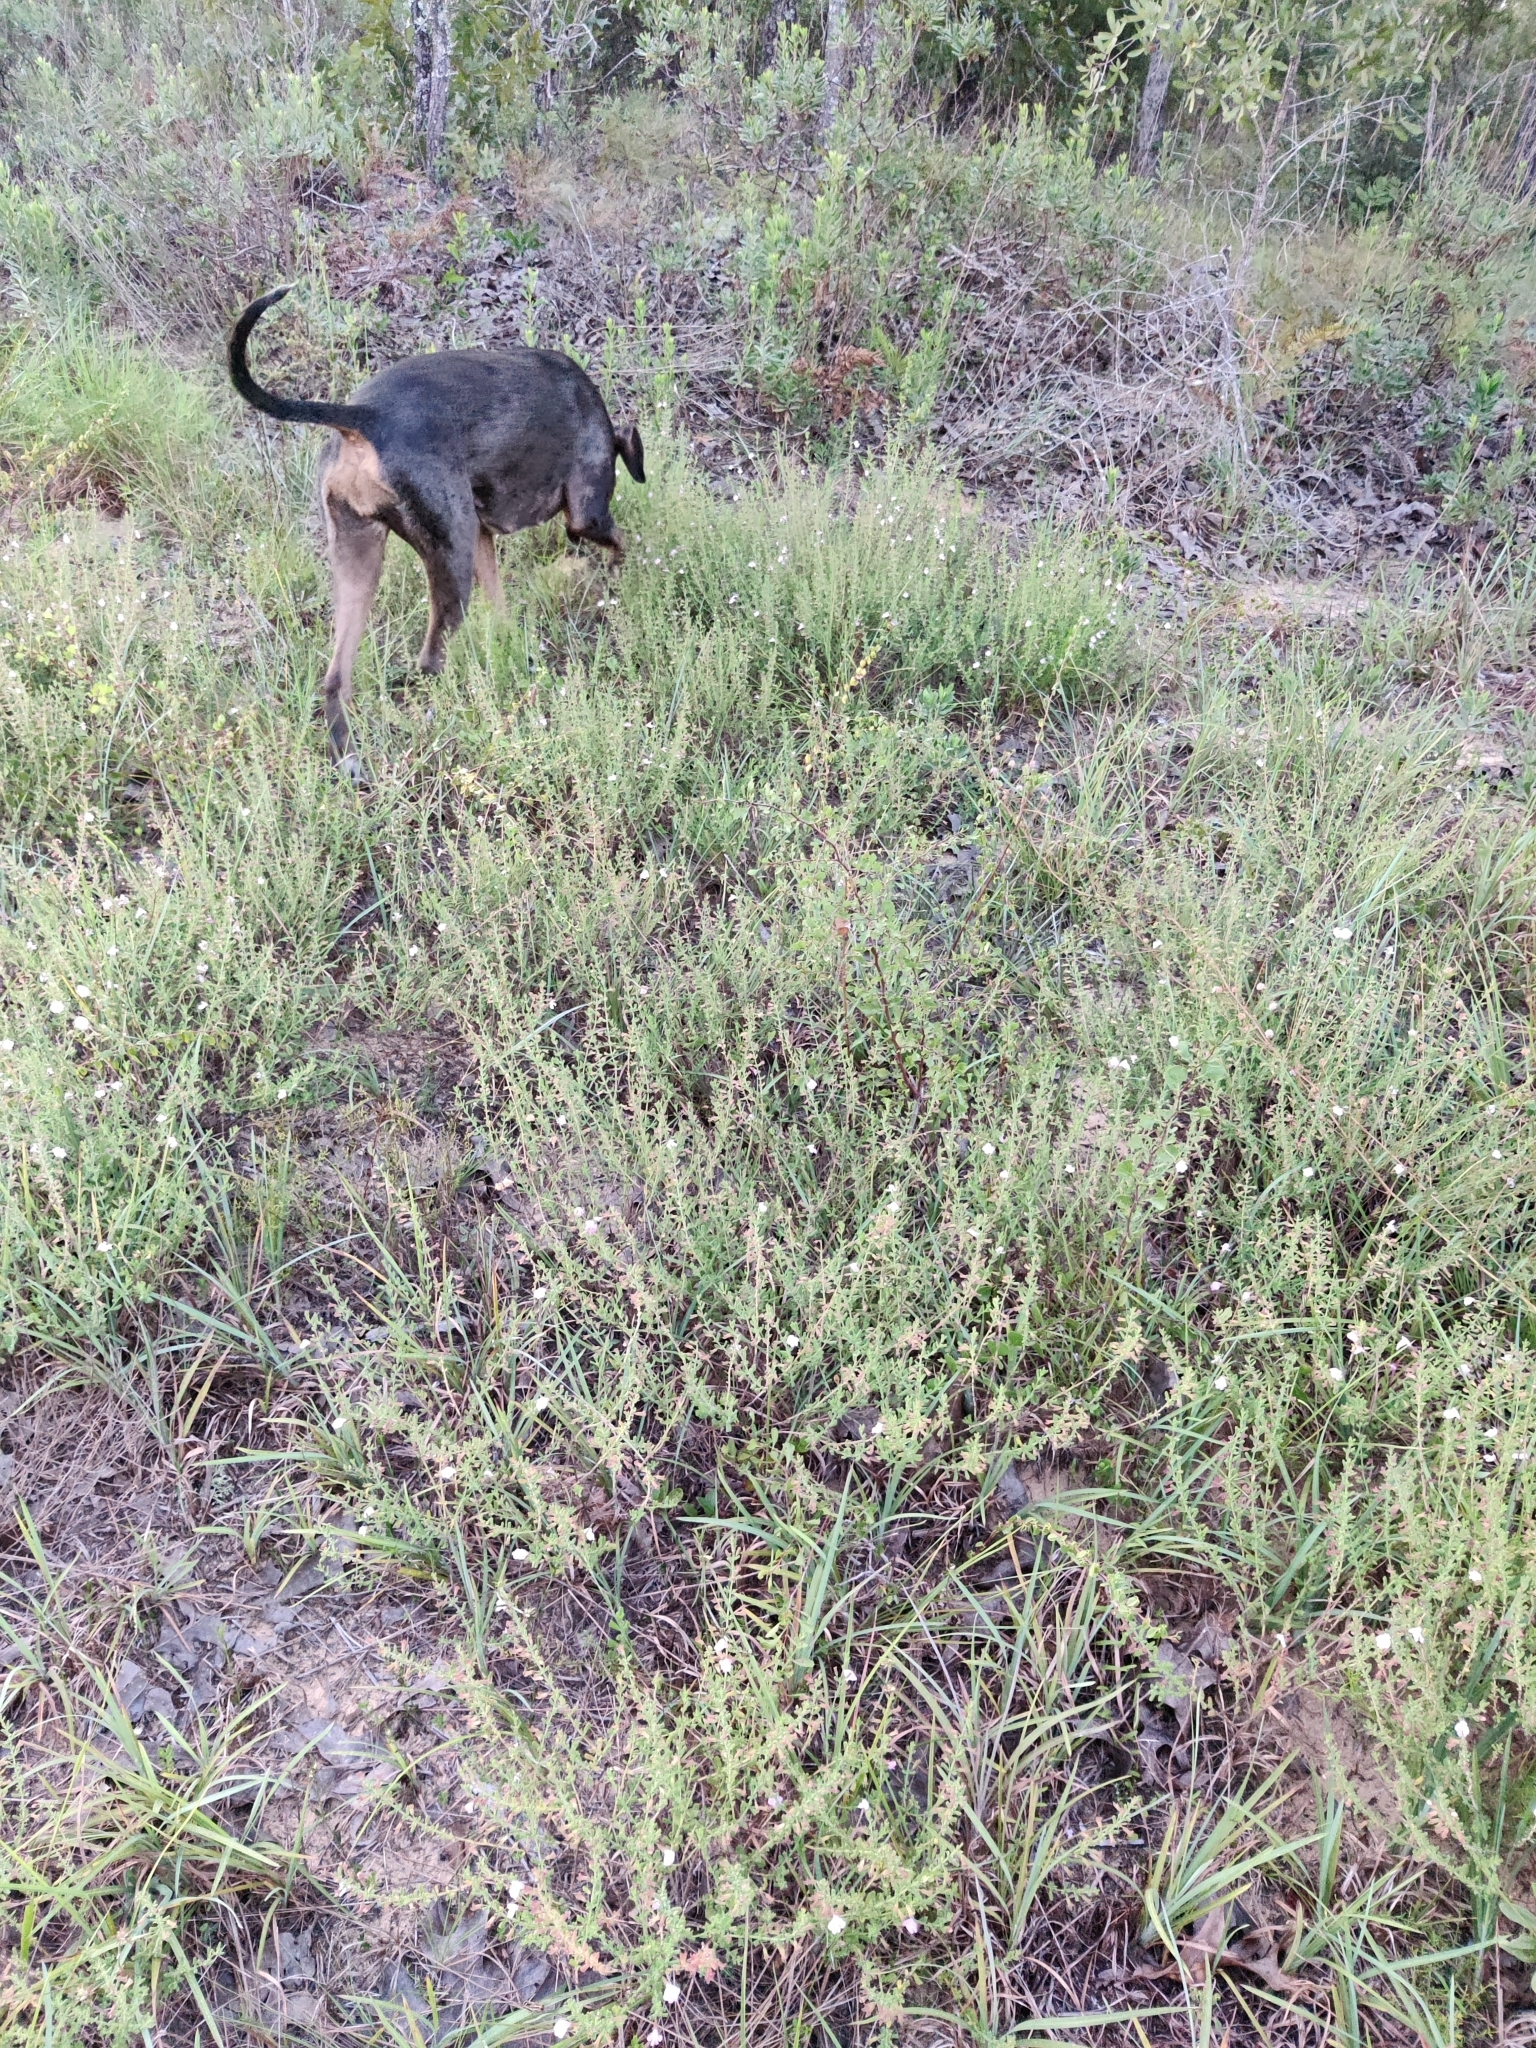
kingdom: Plantae
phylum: Tracheophyta
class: Magnoliopsida
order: Lamiales
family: Lamiaceae
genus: Clinopodium
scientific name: Clinopodium dentatum
